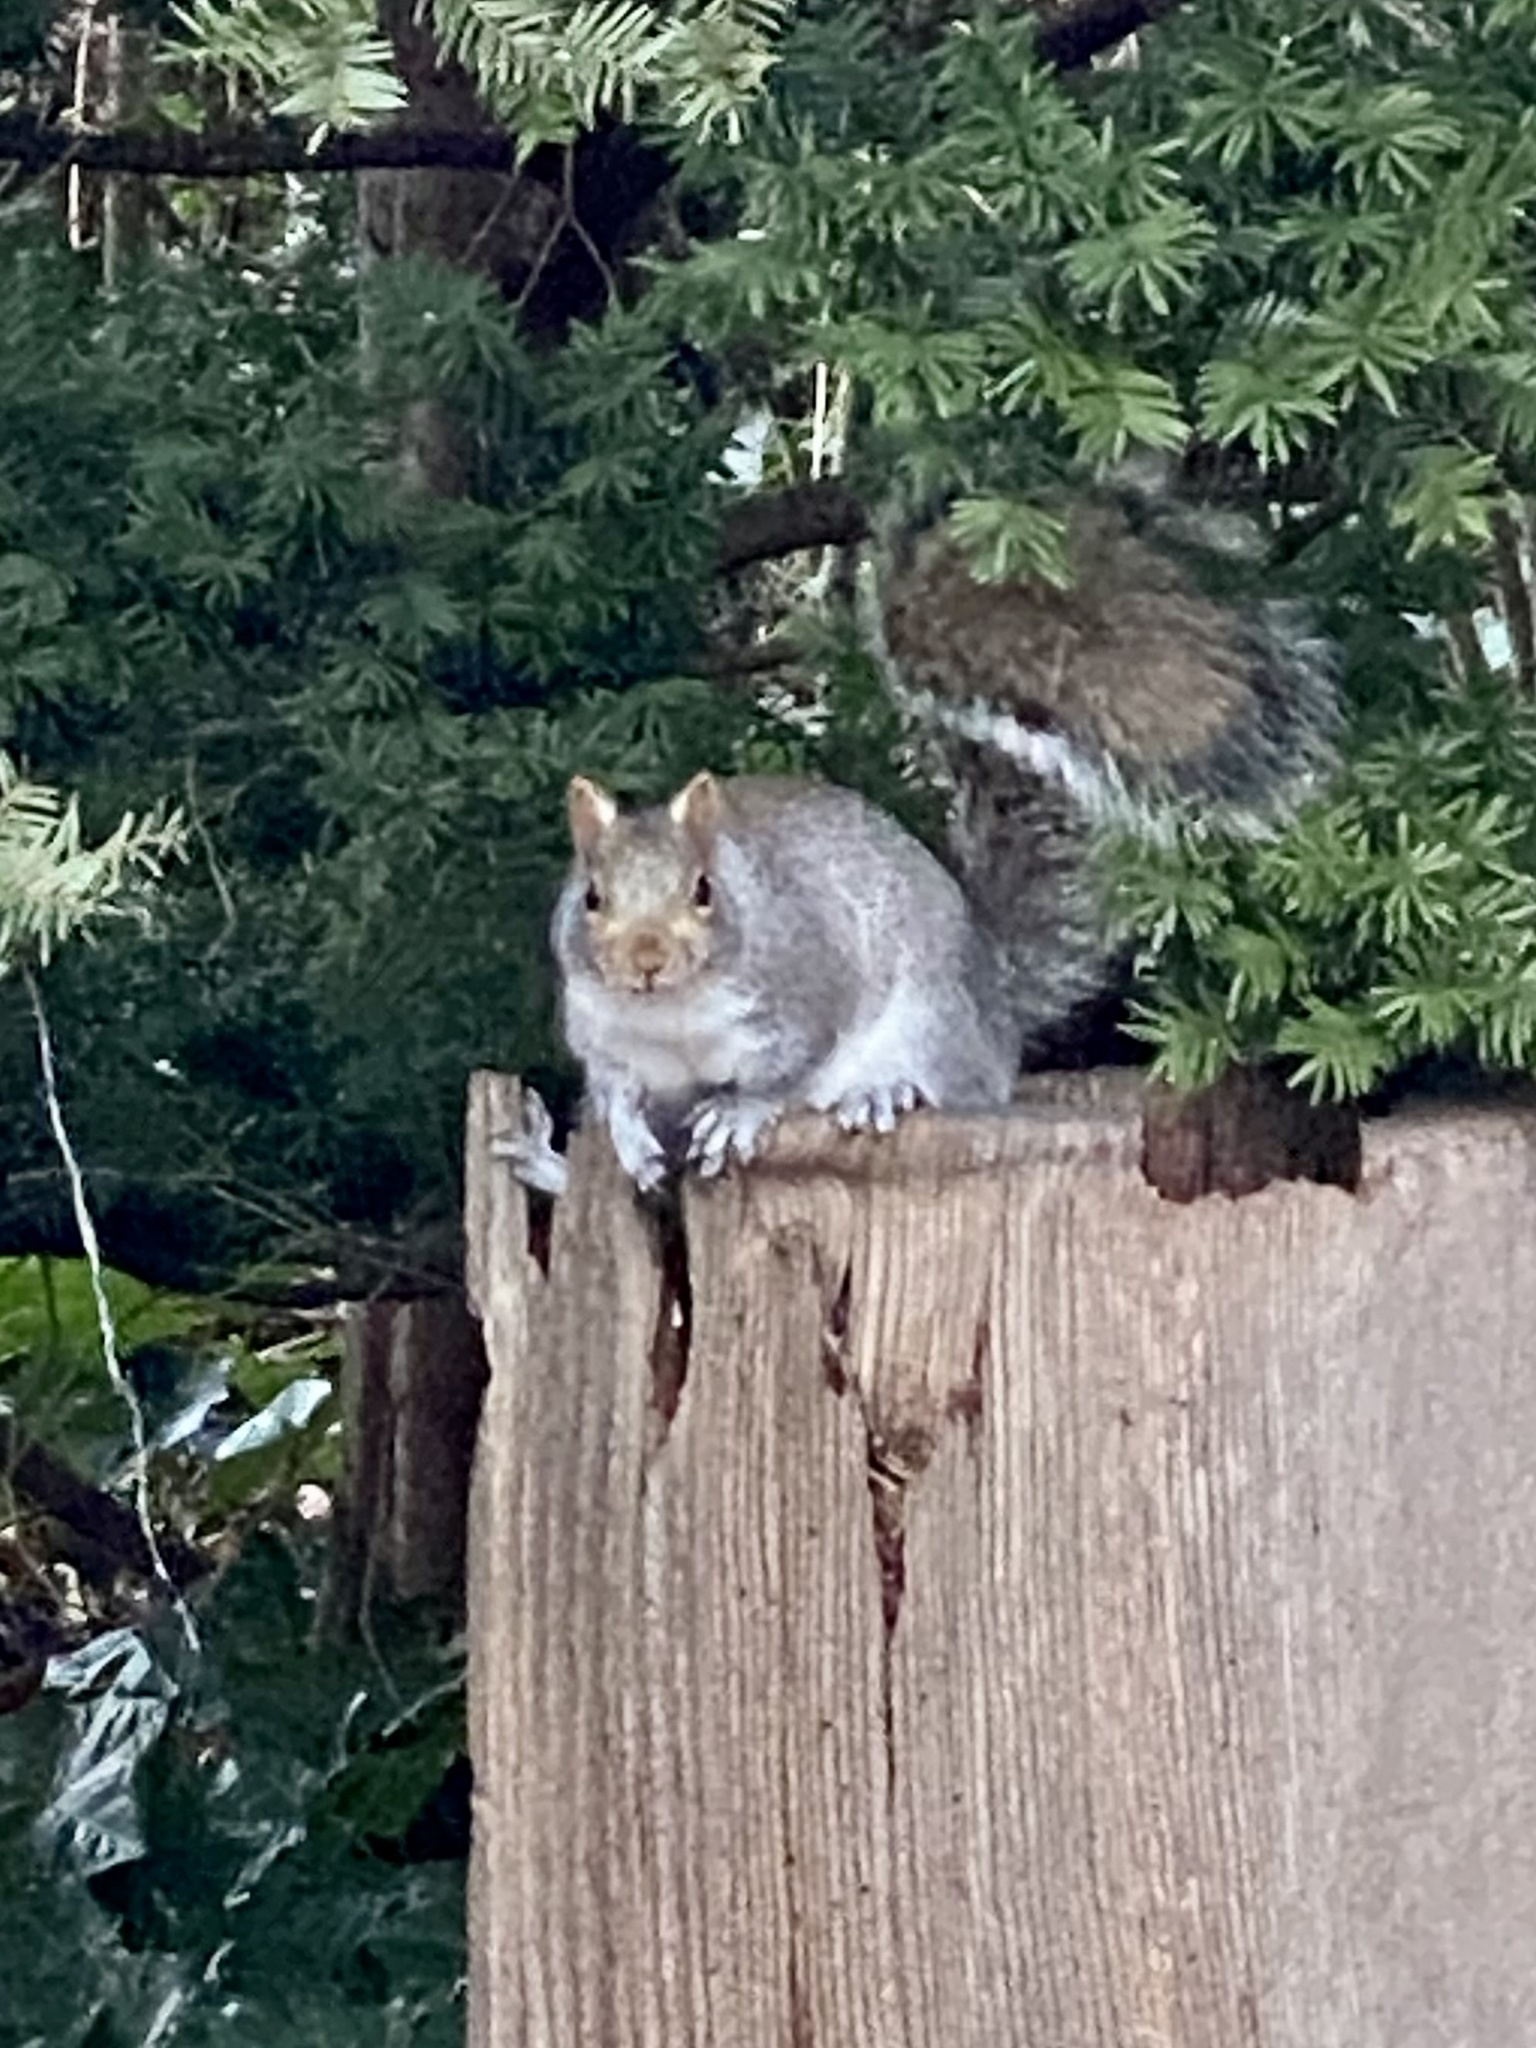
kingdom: Animalia
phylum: Chordata
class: Mammalia
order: Rodentia
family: Sciuridae
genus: Sciurus
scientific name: Sciurus carolinensis
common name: Eastern gray squirrel
